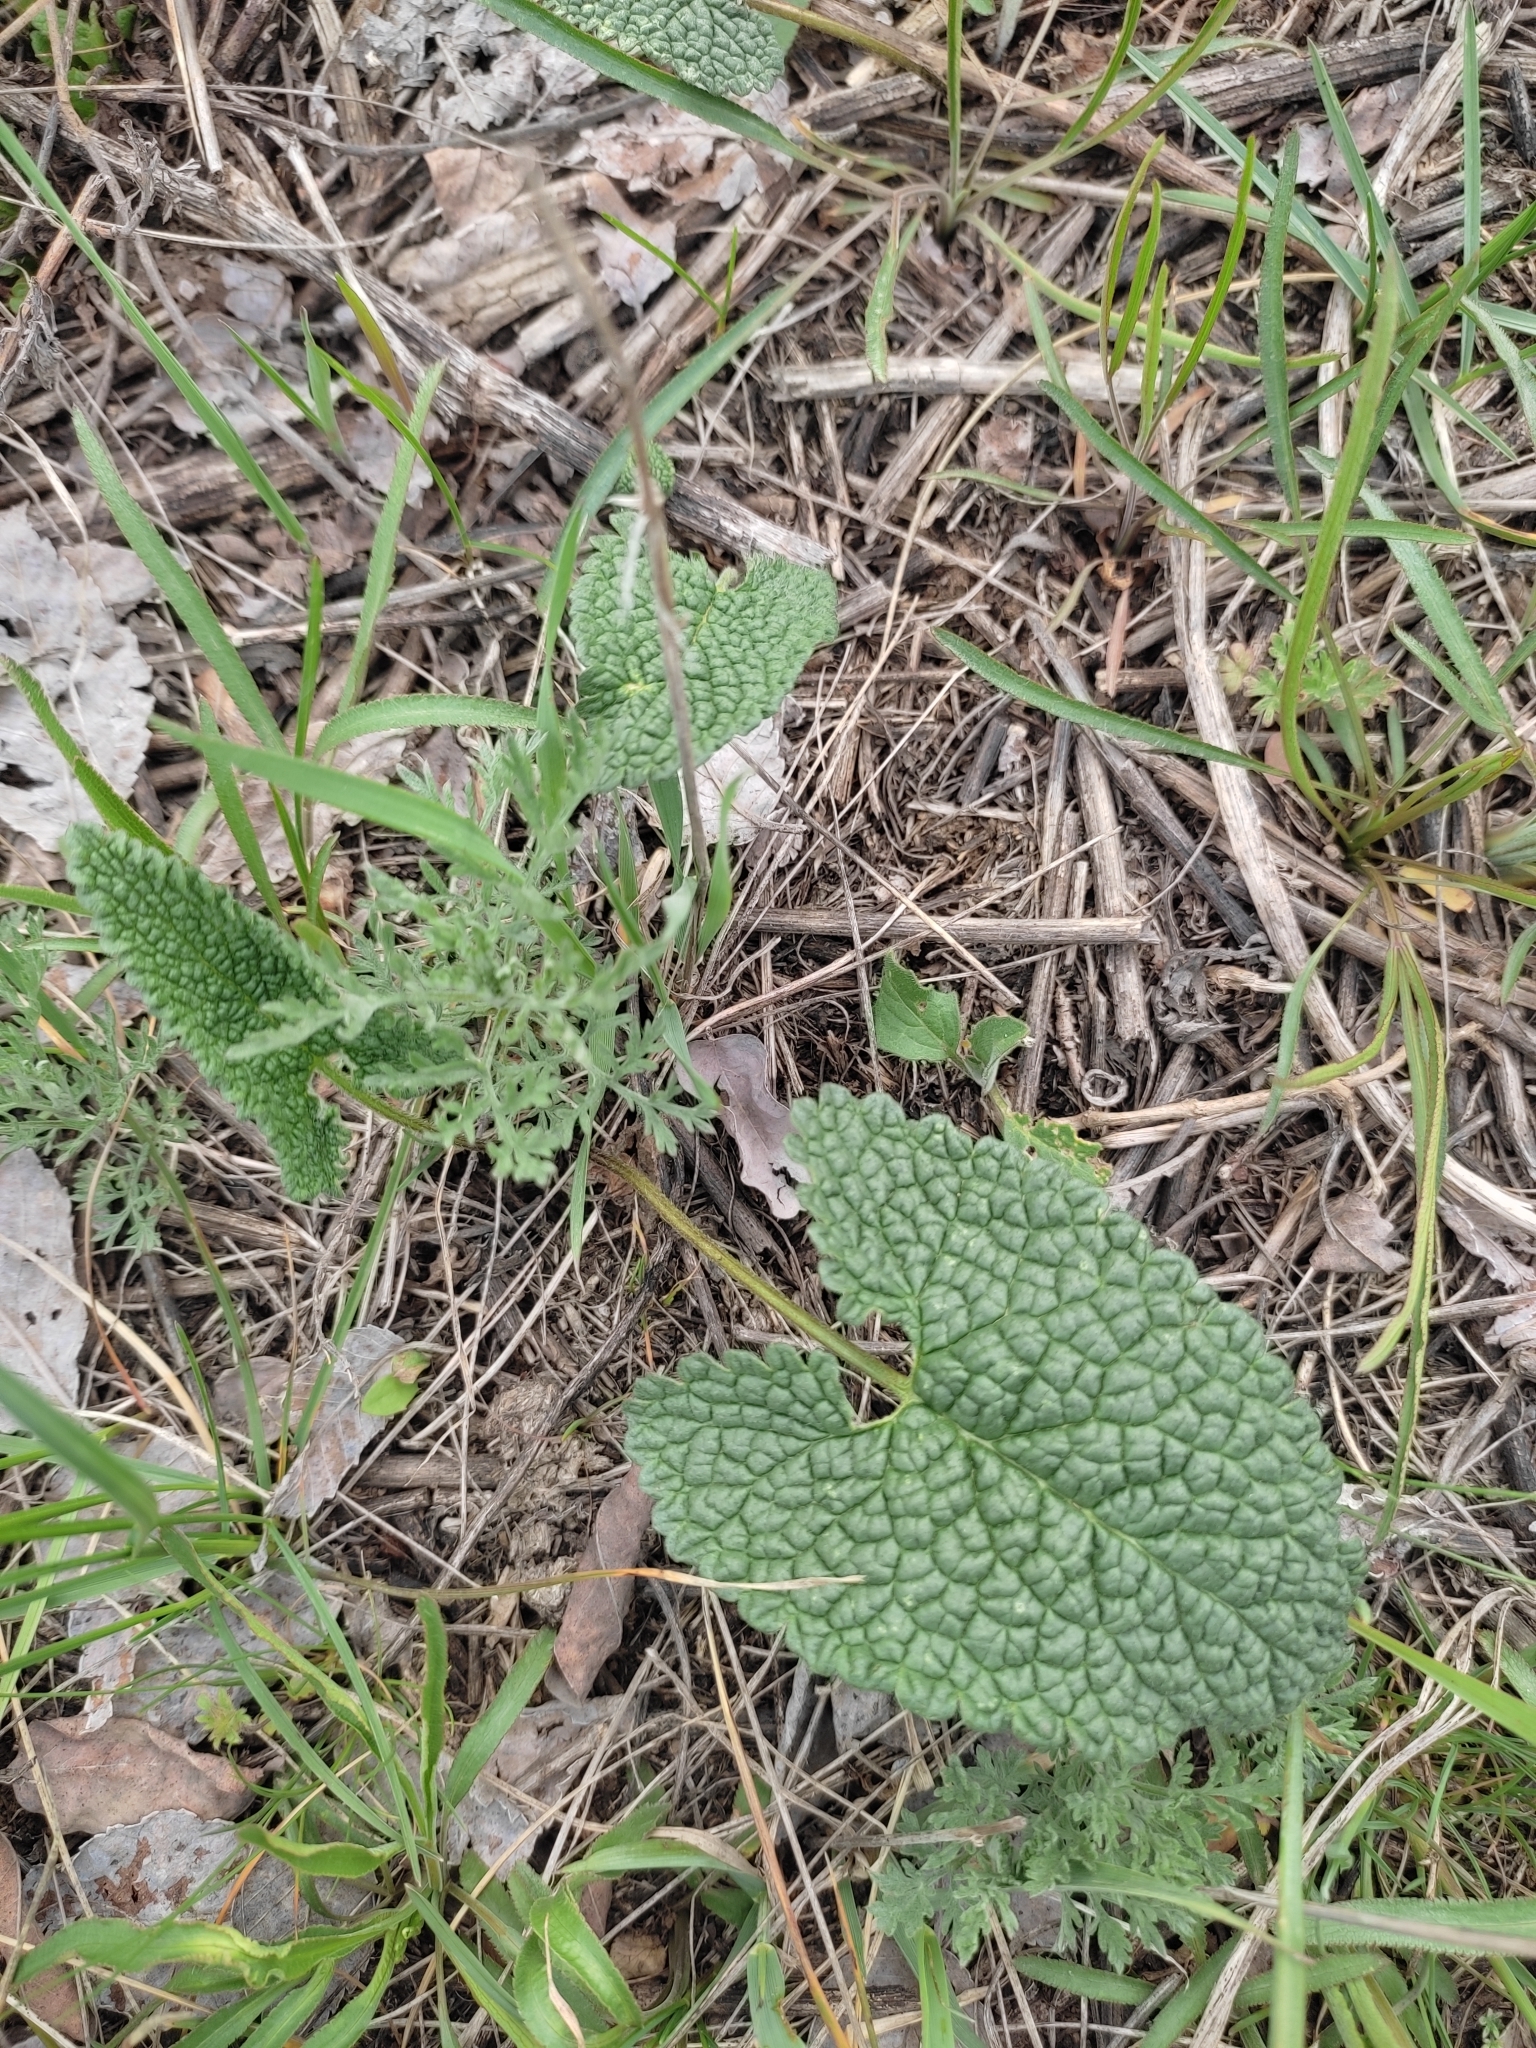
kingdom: Plantae
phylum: Tracheophyta
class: Magnoliopsida
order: Lamiales
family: Lamiaceae
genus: Phlomoides
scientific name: Phlomoides tuberosa
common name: Tuberous jerusalem sage
